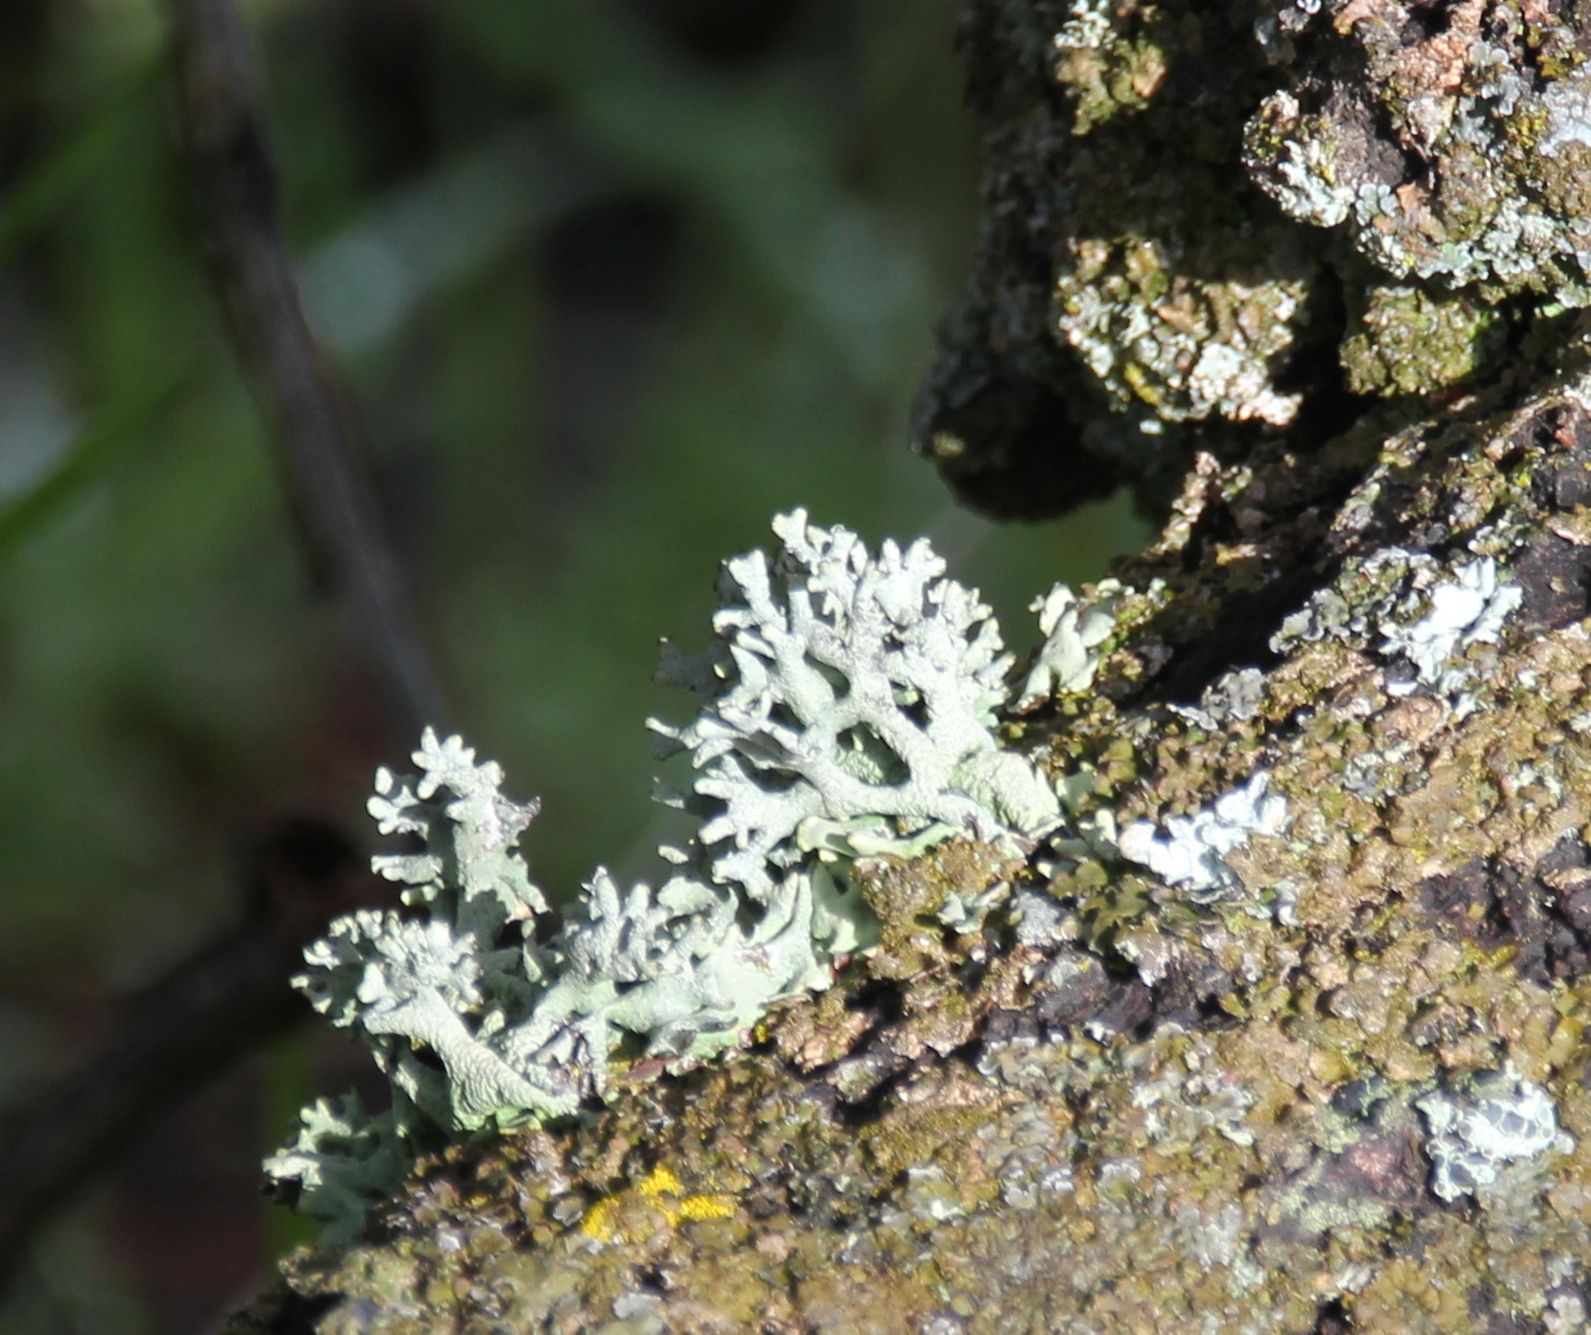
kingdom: Fungi
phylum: Ascomycota
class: Lecanoromycetes
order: Lecanorales
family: Parmeliaceae
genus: Evernia
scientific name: Evernia prunastri
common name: Oak moss
